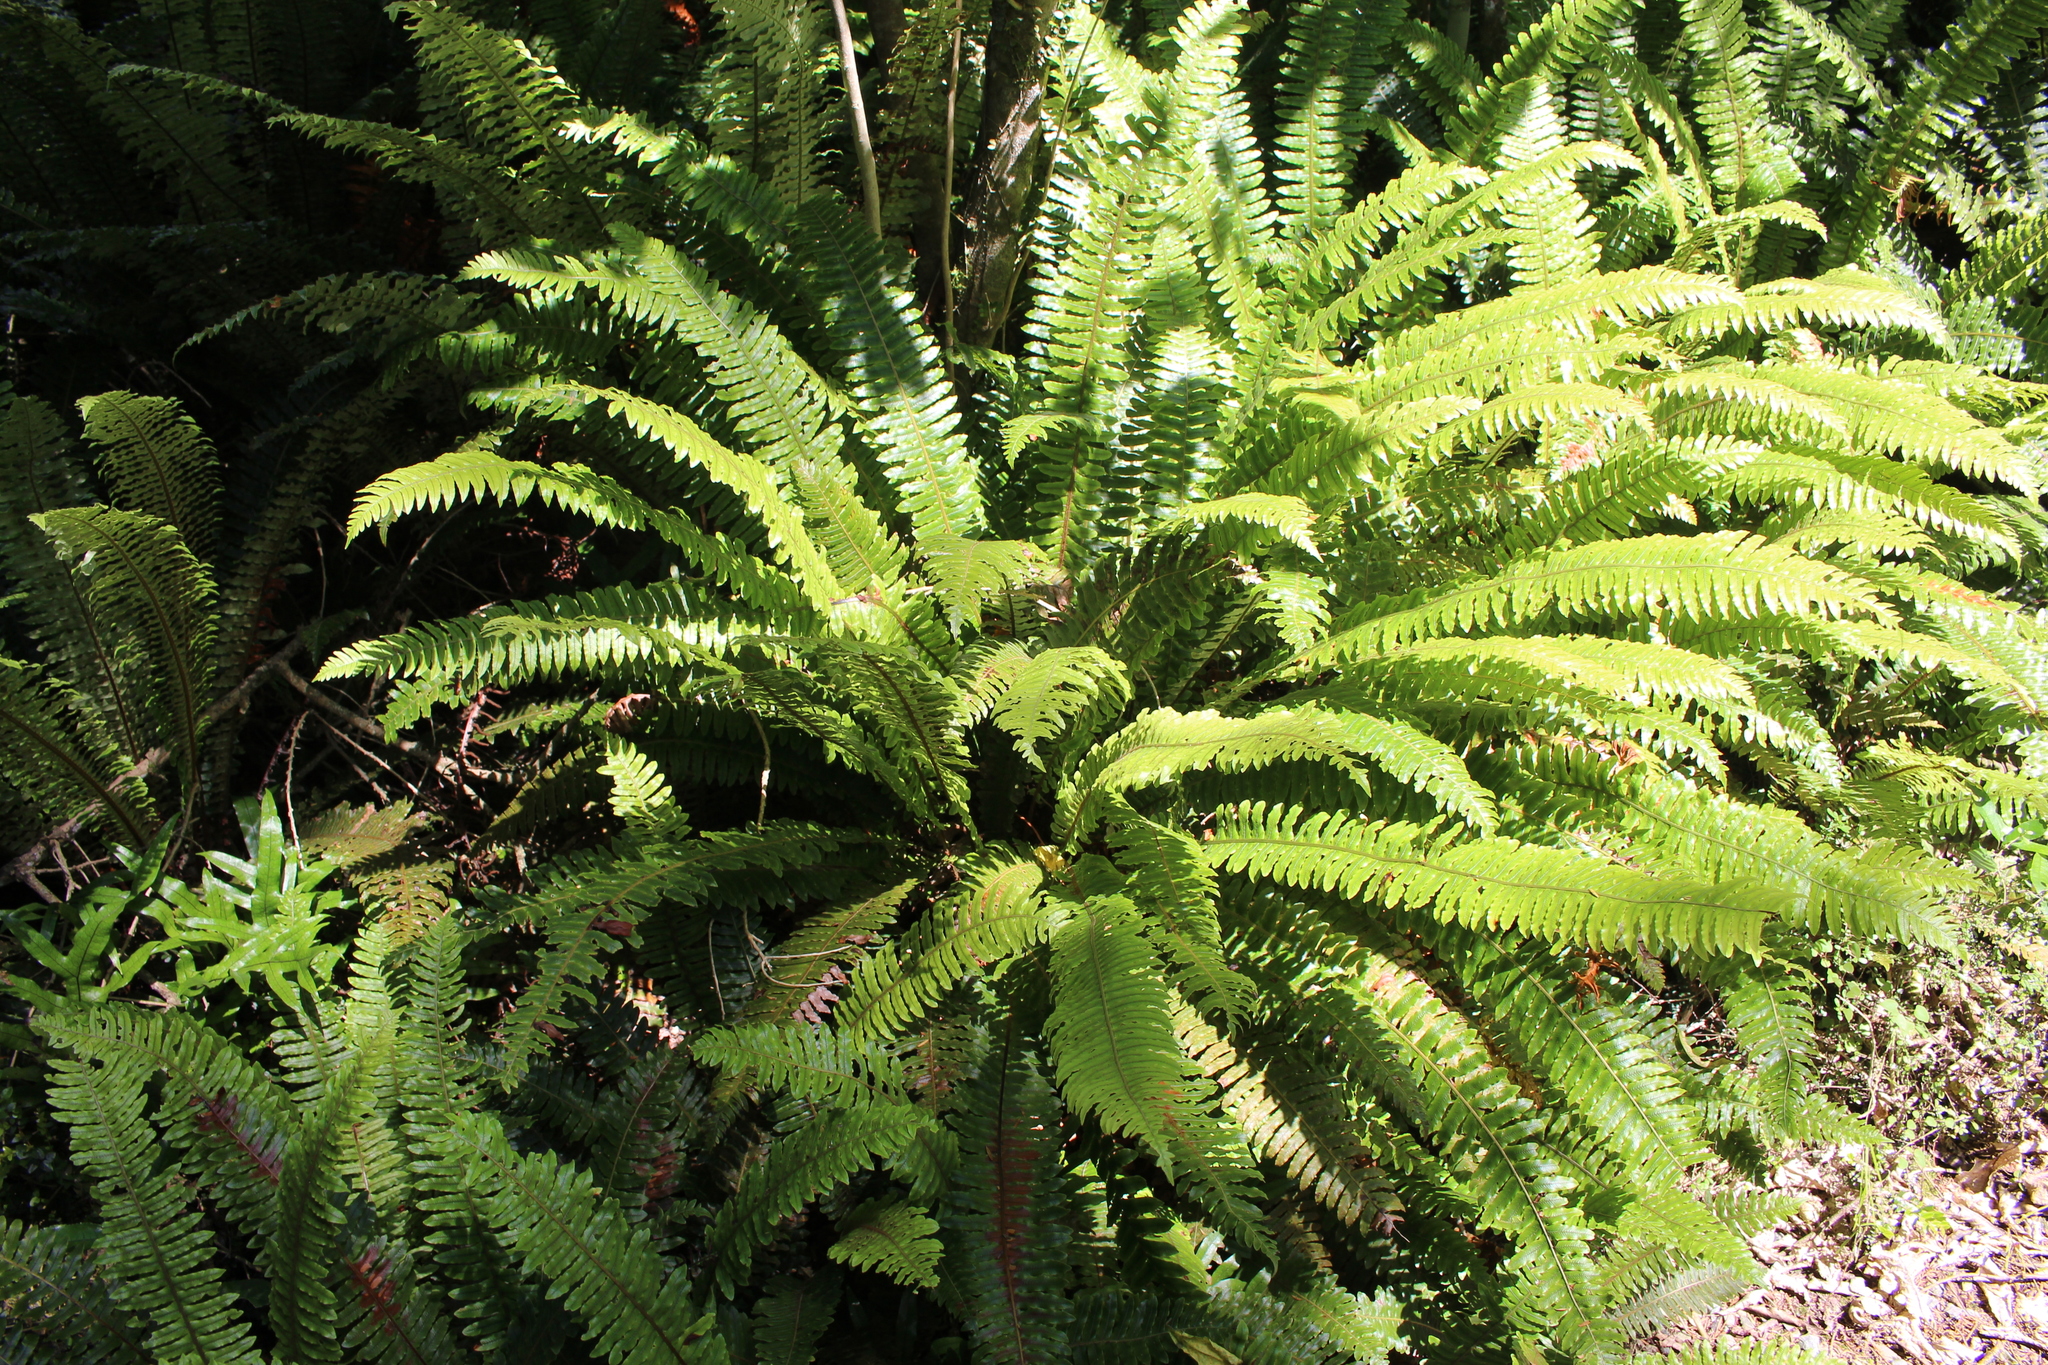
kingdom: Plantae
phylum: Tracheophyta
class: Polypodiopsida
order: Polypodiales
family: Blechnaceae
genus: Lomaria
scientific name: Lomaria discolor
